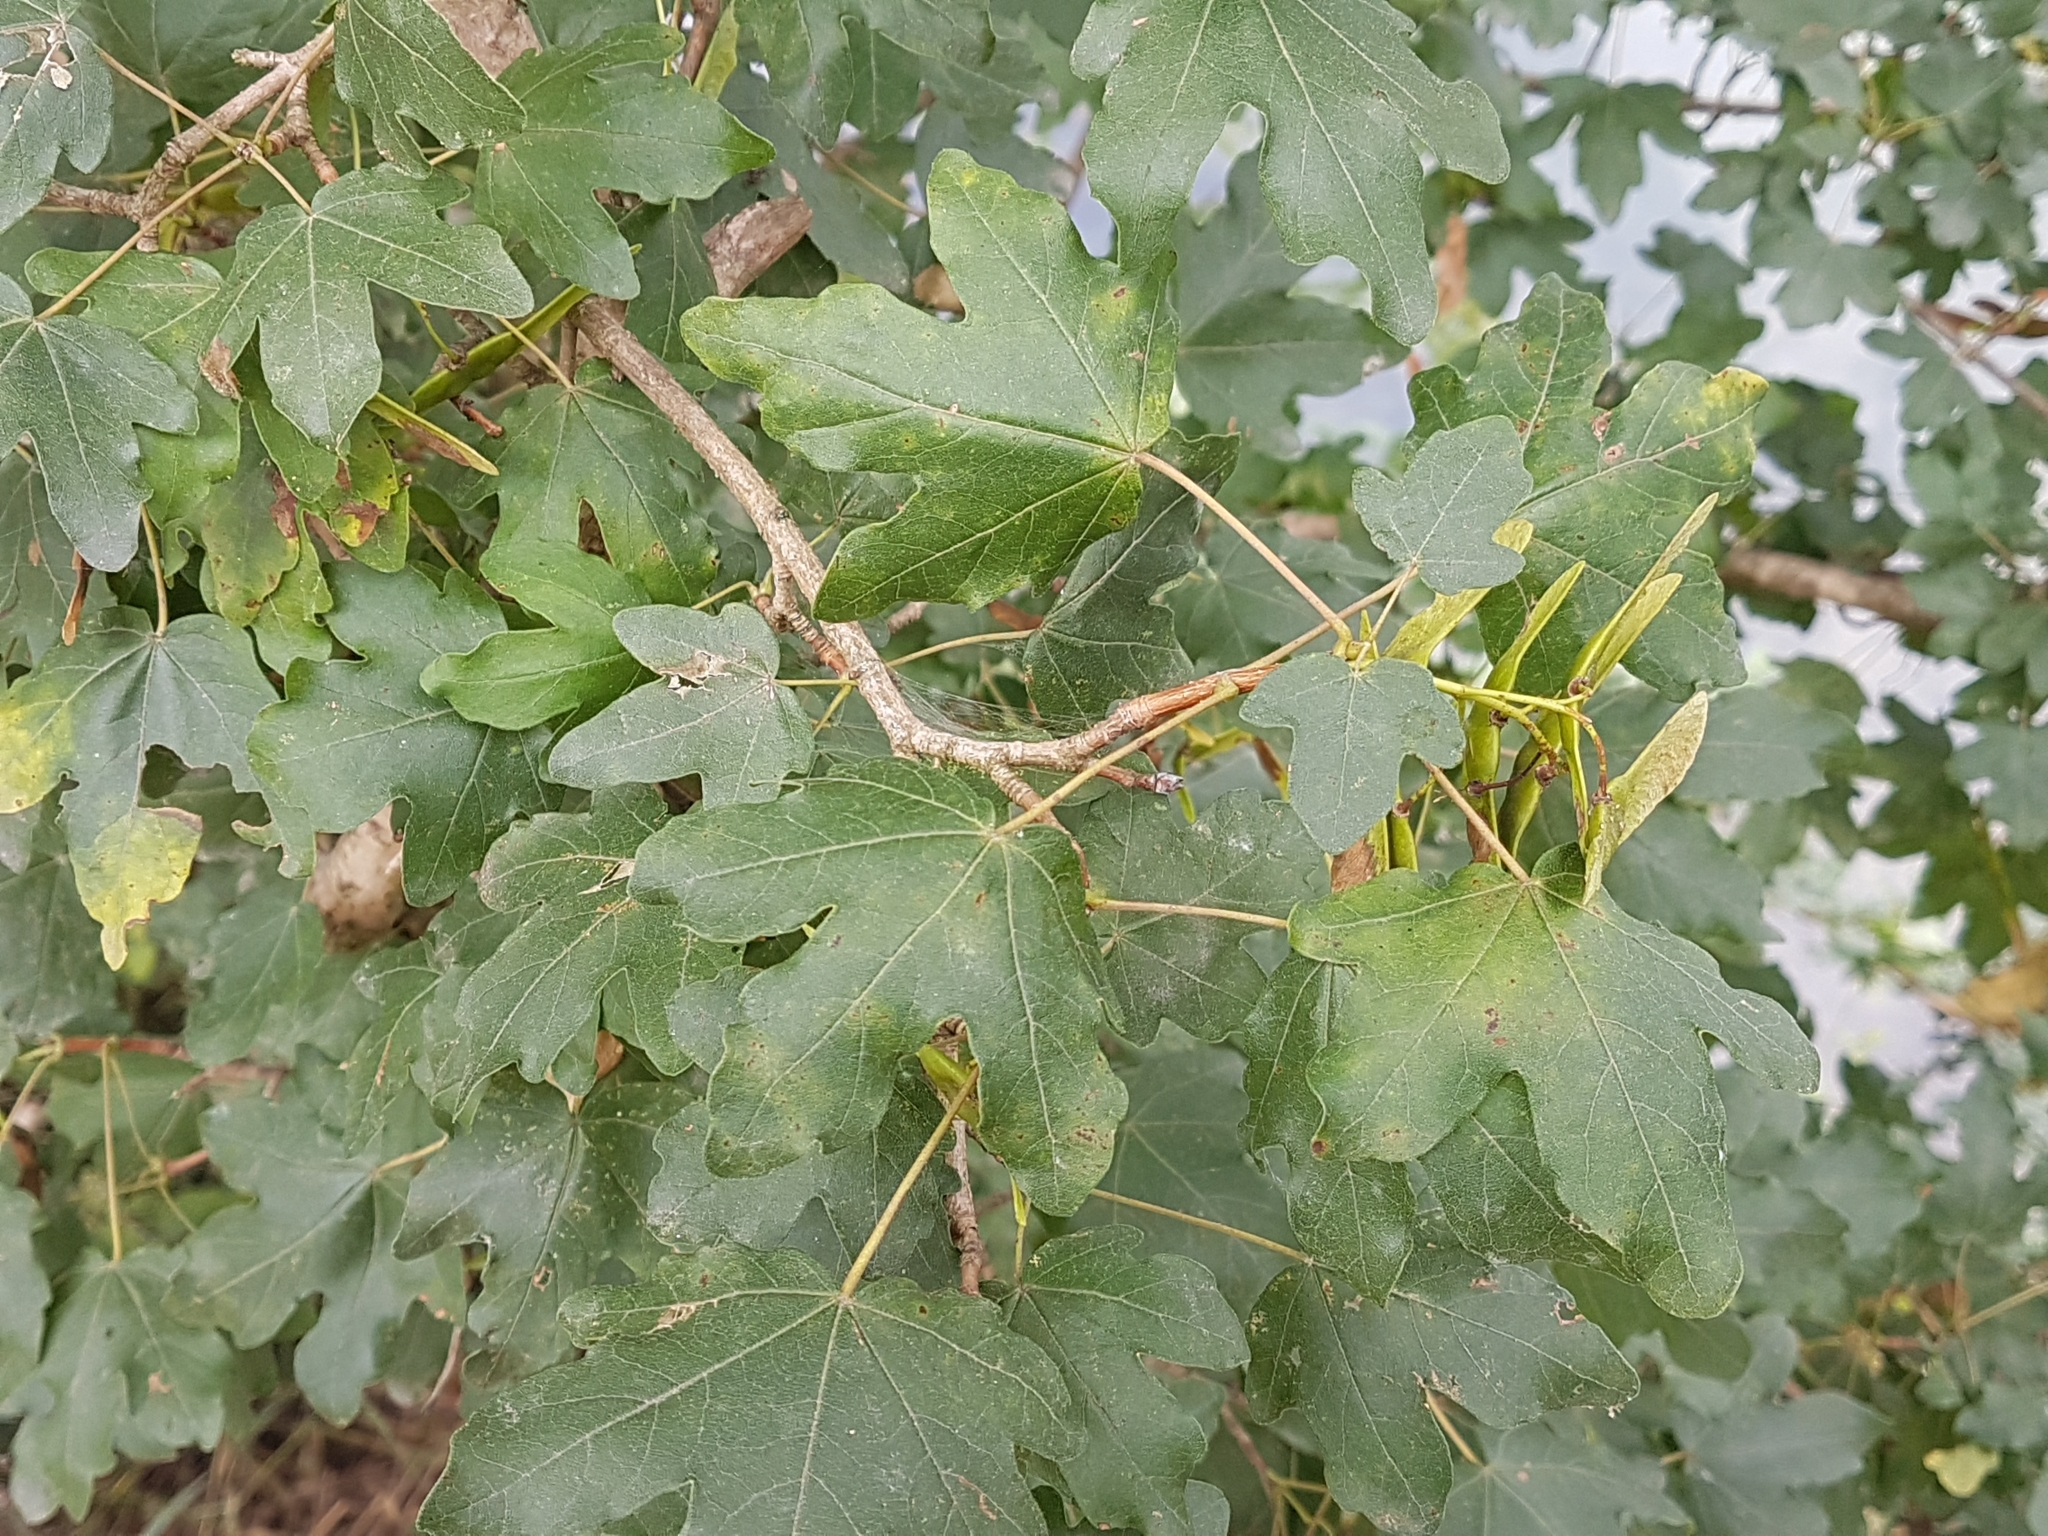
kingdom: Plantae
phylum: Tracheophyta
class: Magnoliopsida
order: Sapindales
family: Sapindaceae
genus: Acer
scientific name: Acer campestre
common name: Field maple
